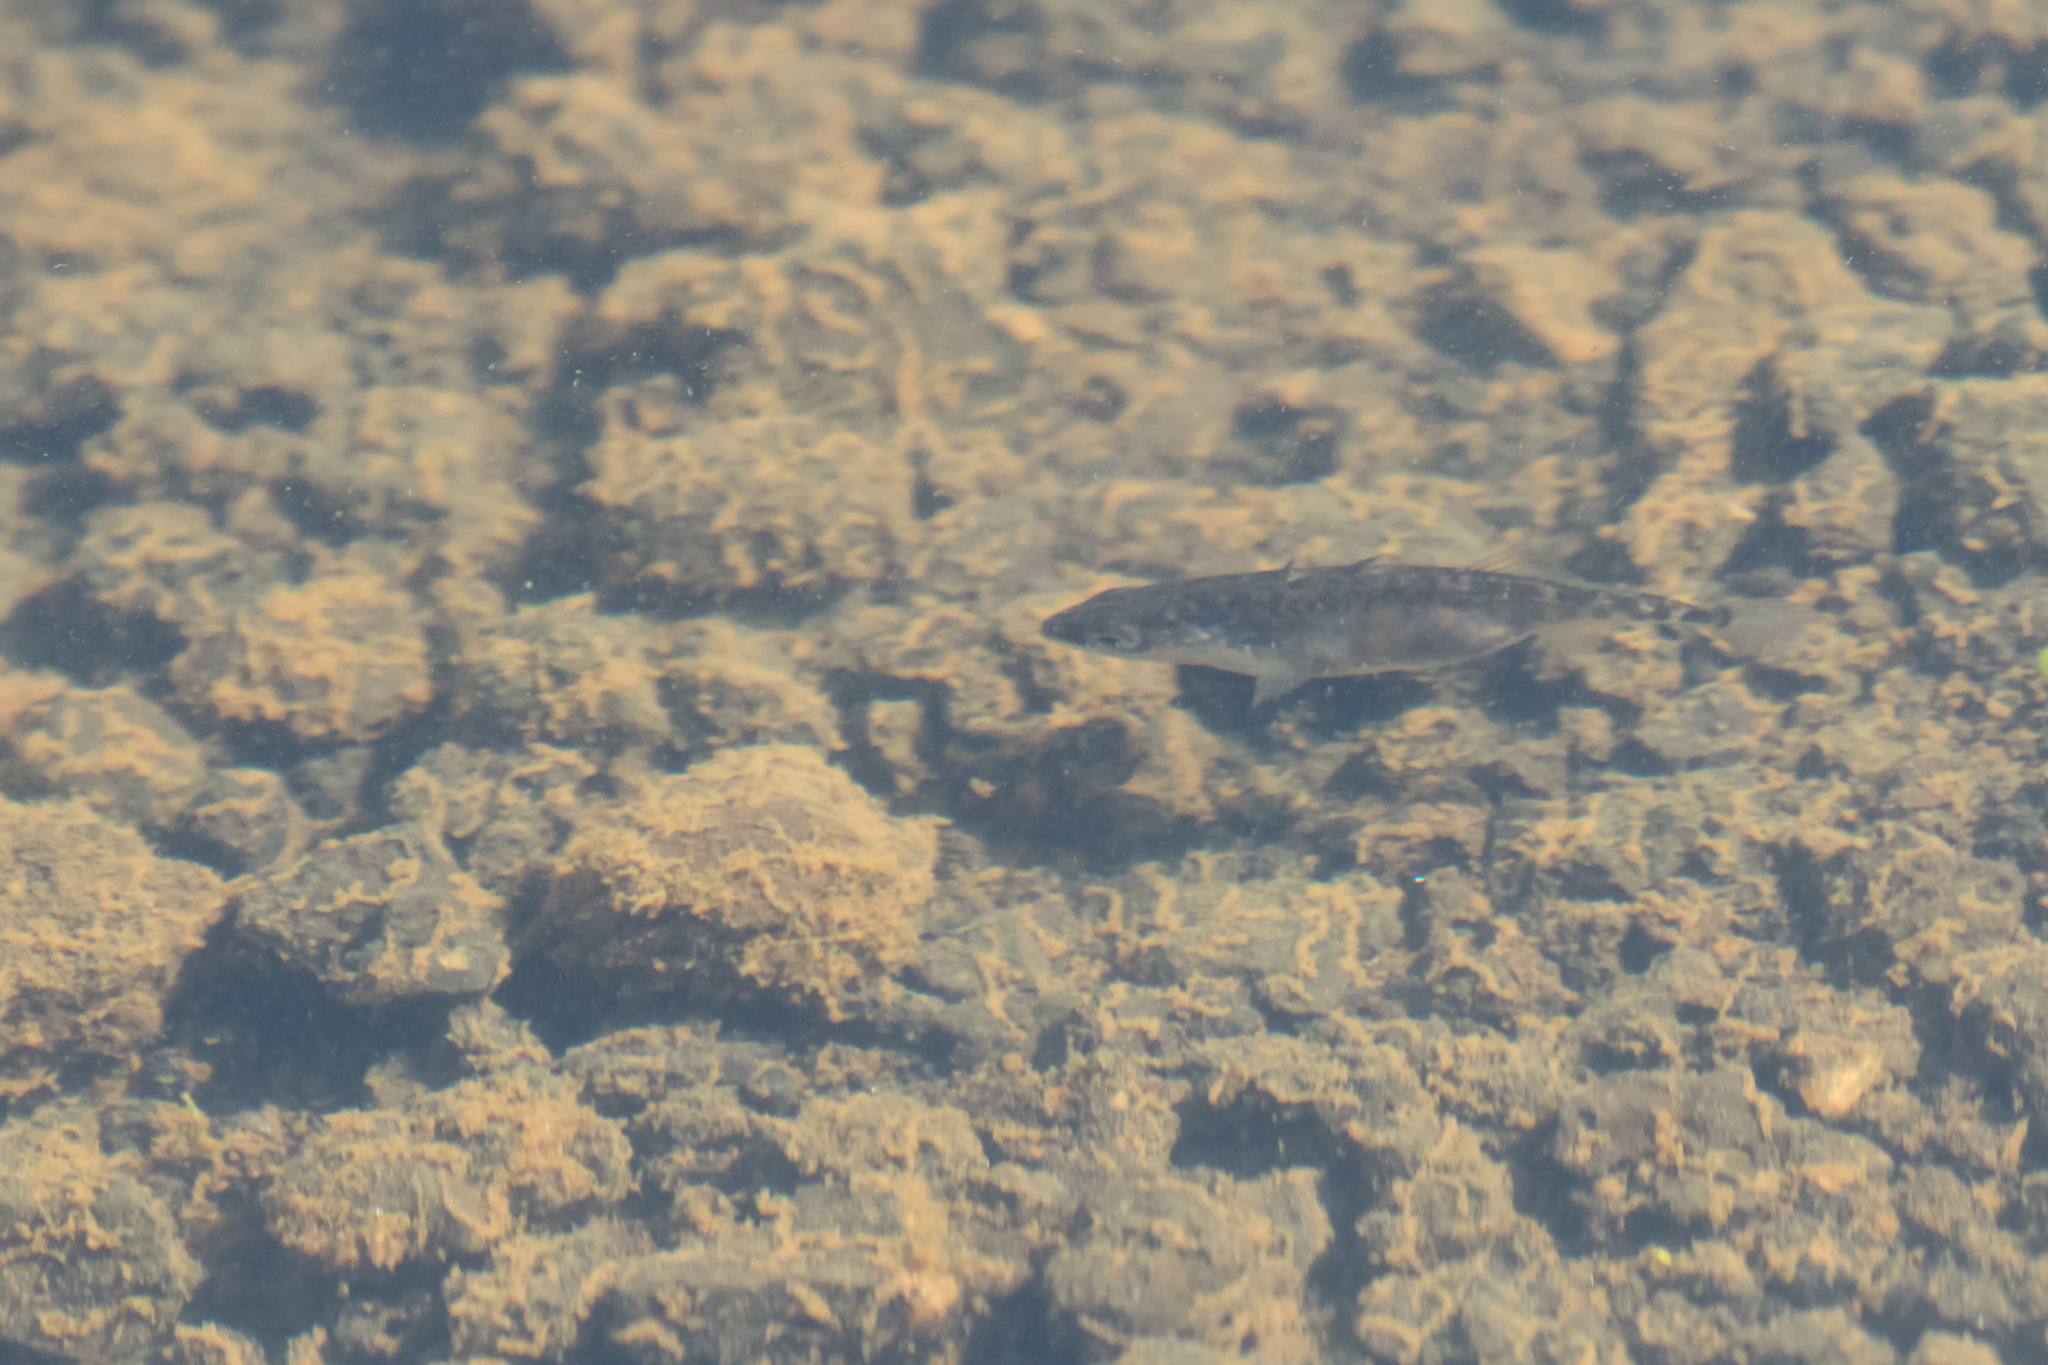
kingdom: Animalia
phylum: Chordata
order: Gasterosteiformes
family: Gasterosteidae
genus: Gasterosteus
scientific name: Gasterosteus aculeatus
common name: Three-spined stickleback
